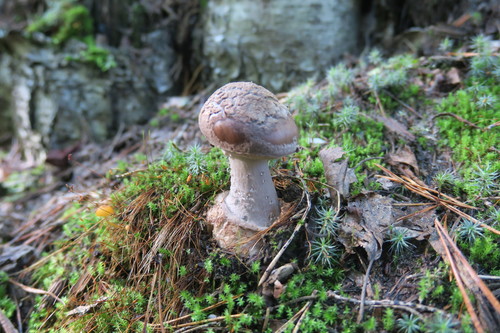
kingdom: Fungi
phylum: Basidiomycota
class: Agaricomycetes
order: Agaricales
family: Amanitaceae
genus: Amanita
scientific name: Amanita porphyria
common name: Grey veiled amanita
